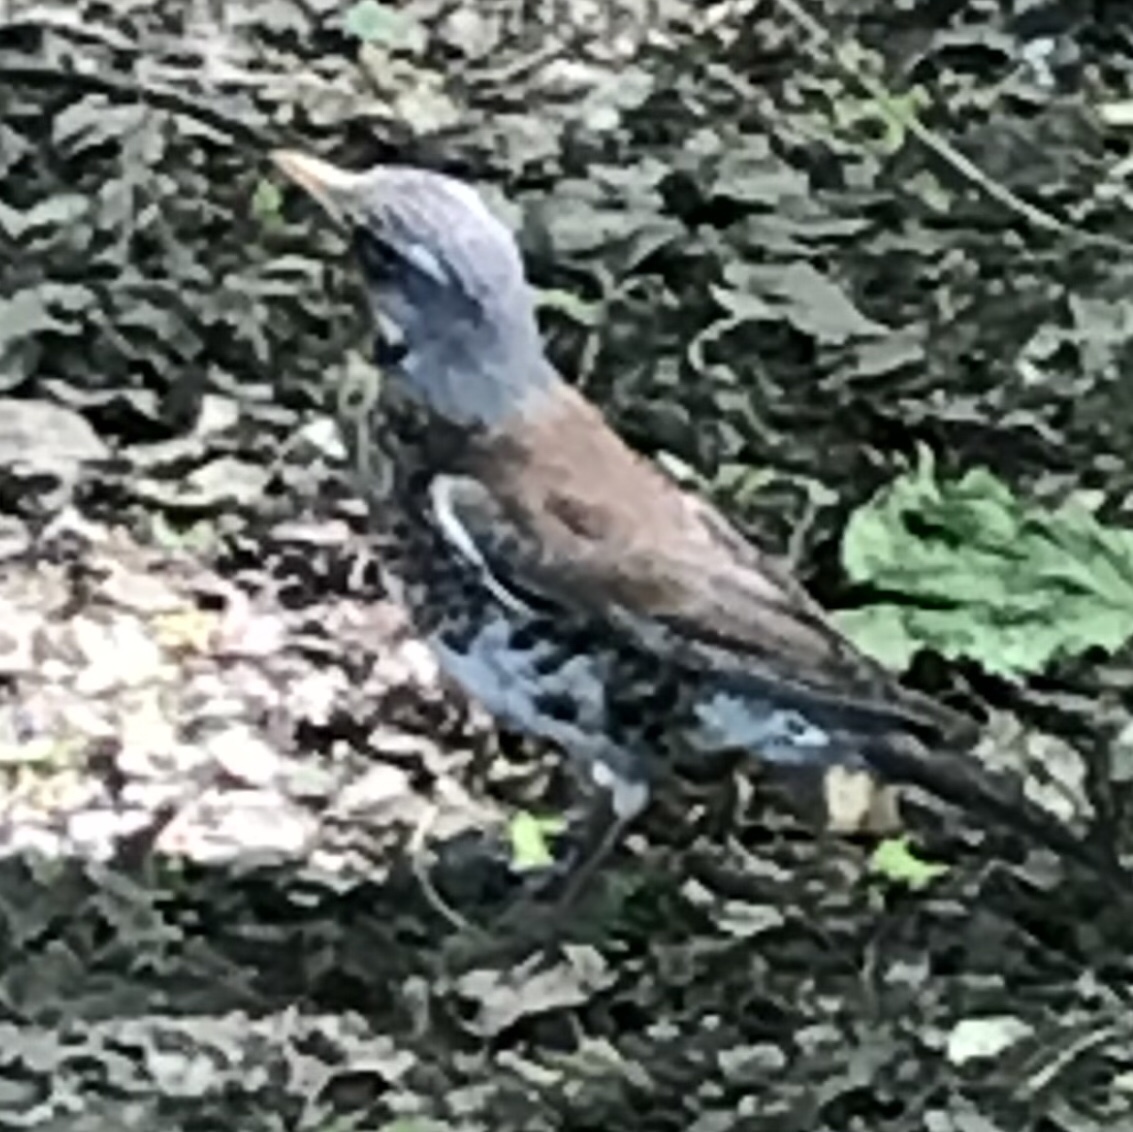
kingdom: Animalia
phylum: Chordata
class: Aves
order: Passeriformes
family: Turdidae
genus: Turdus
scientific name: Turdus pilaris
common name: Fieldfare
